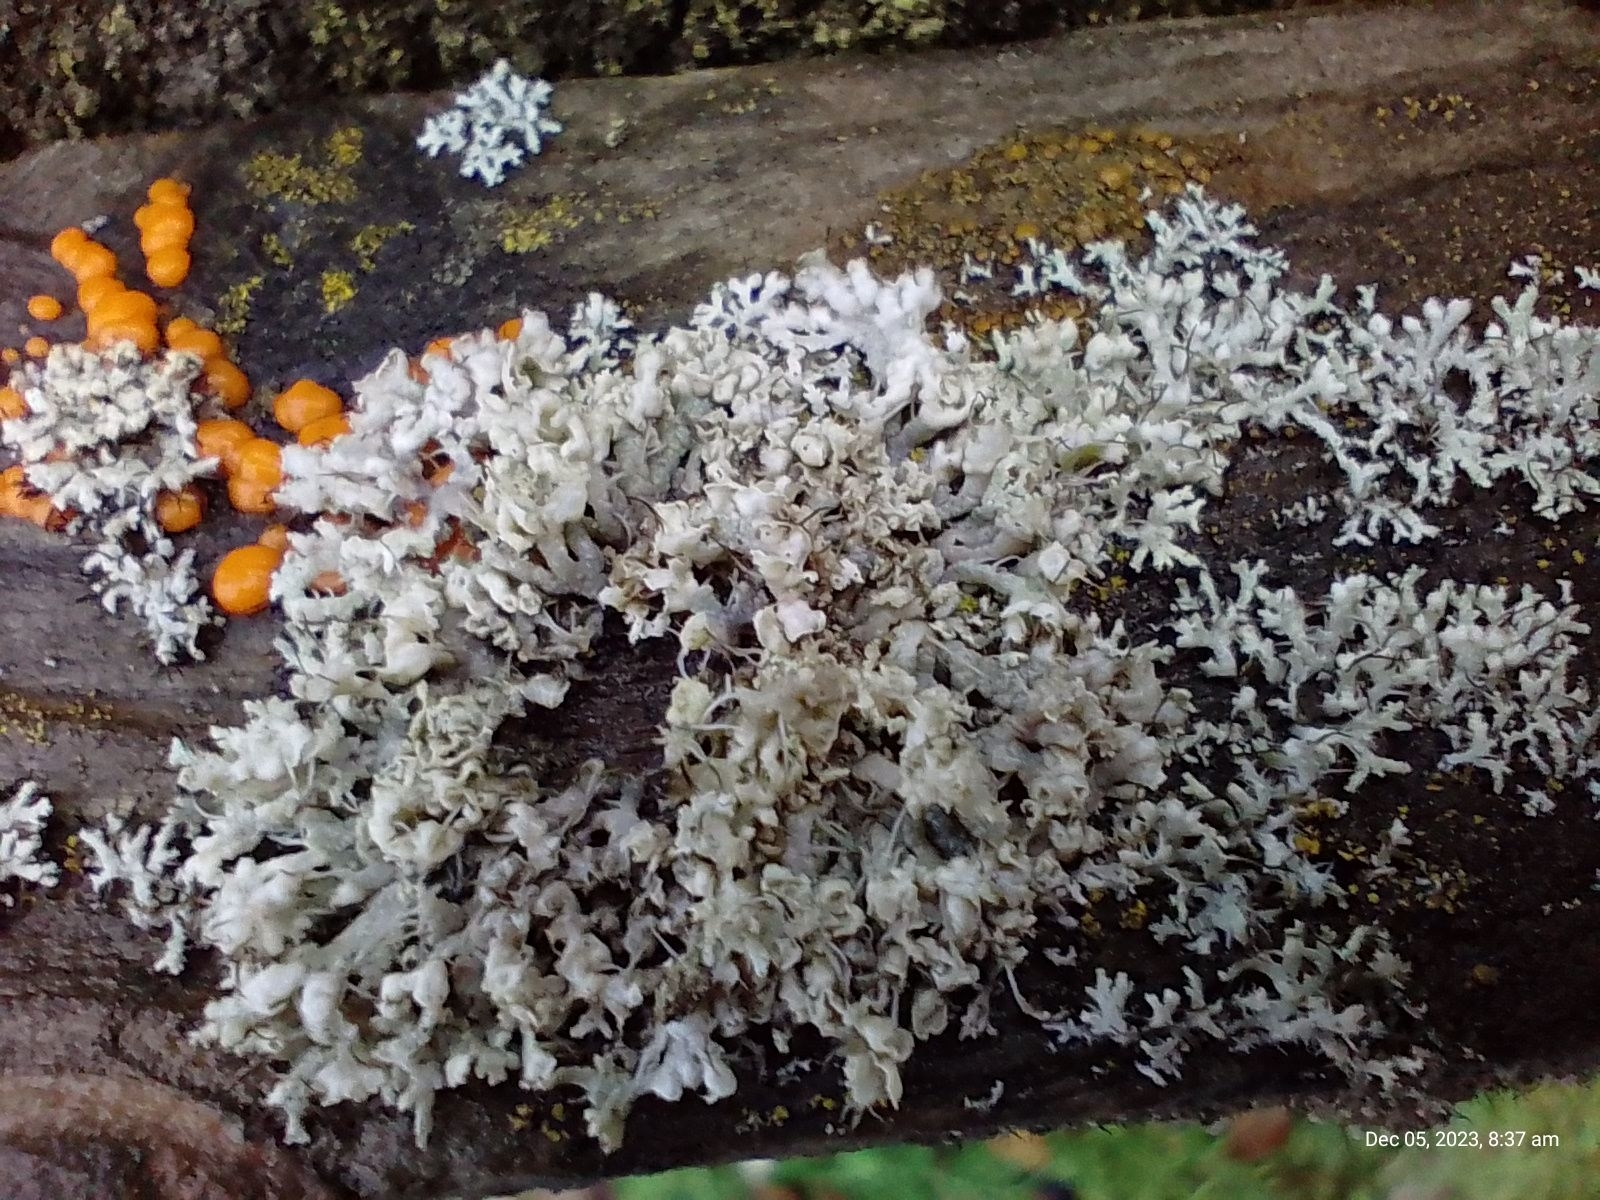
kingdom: Fungi
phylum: Ascomycota
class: Lecanoromycetes
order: Caliciales
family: Physciaceae
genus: Physcia
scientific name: Physcia adscendens
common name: Hooded rosette lichen
